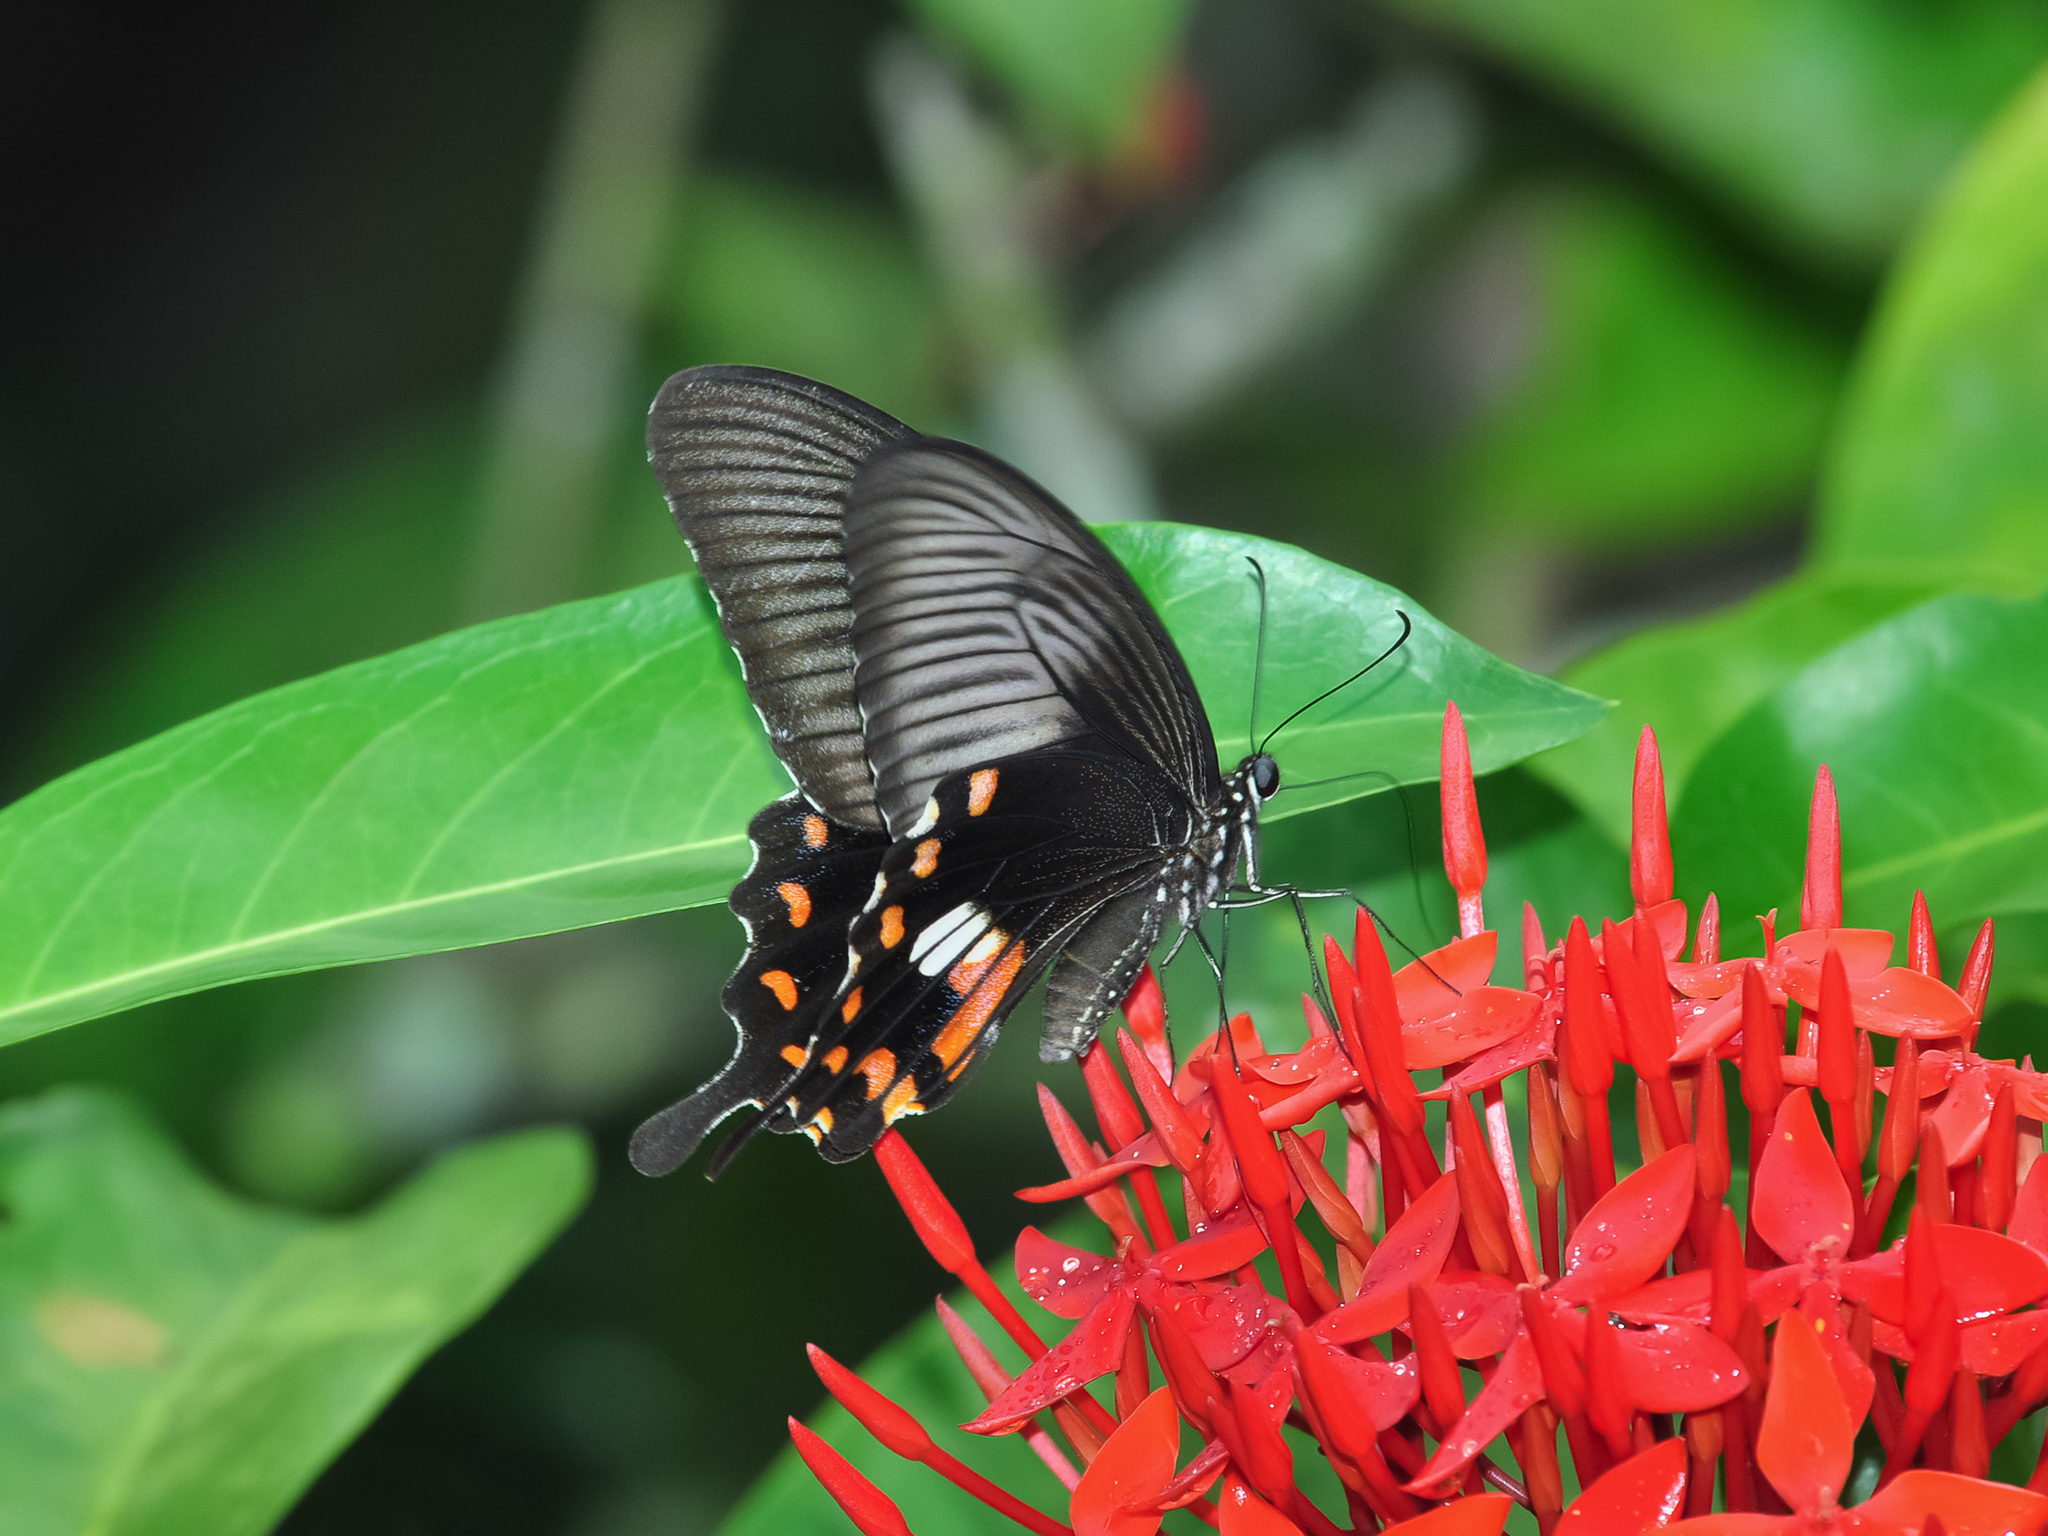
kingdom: Animalia
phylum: Arthropoda
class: Insecta
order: Lepidoptera
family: Papilionidae
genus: Papilio
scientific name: Papilio polytes
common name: Common mormon
